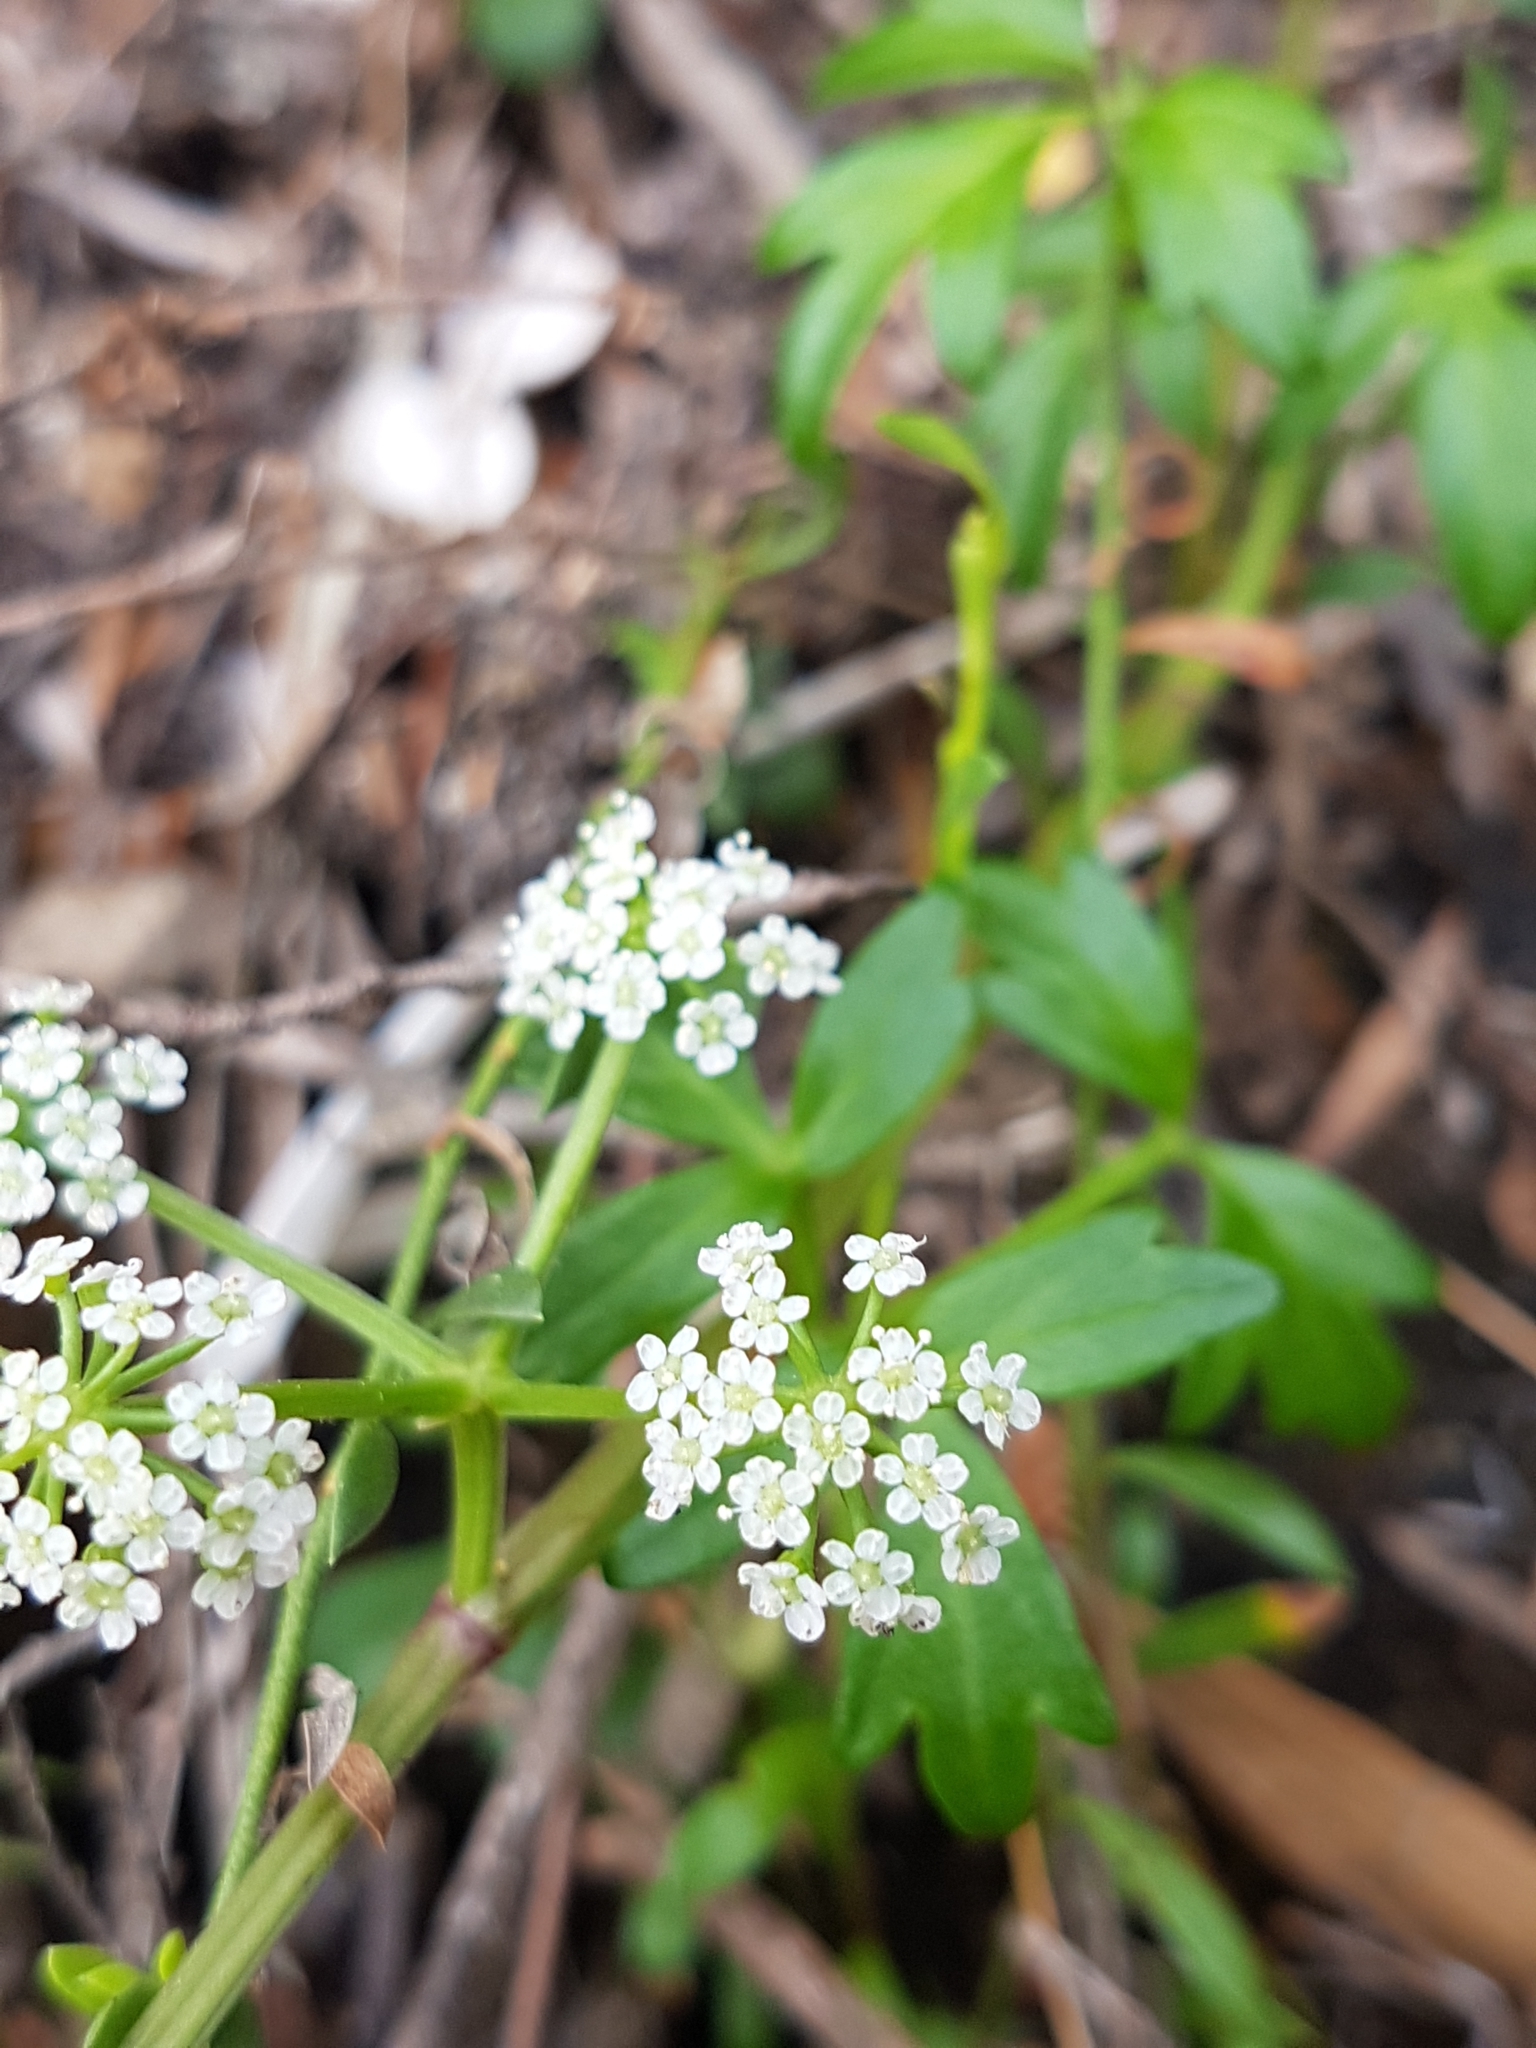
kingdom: Plantae
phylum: Tracheophyta
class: Magnoliopsida
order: Apiales
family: Apiaceae
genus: Apium
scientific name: Apium prostratum
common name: Prostrate marshwort
